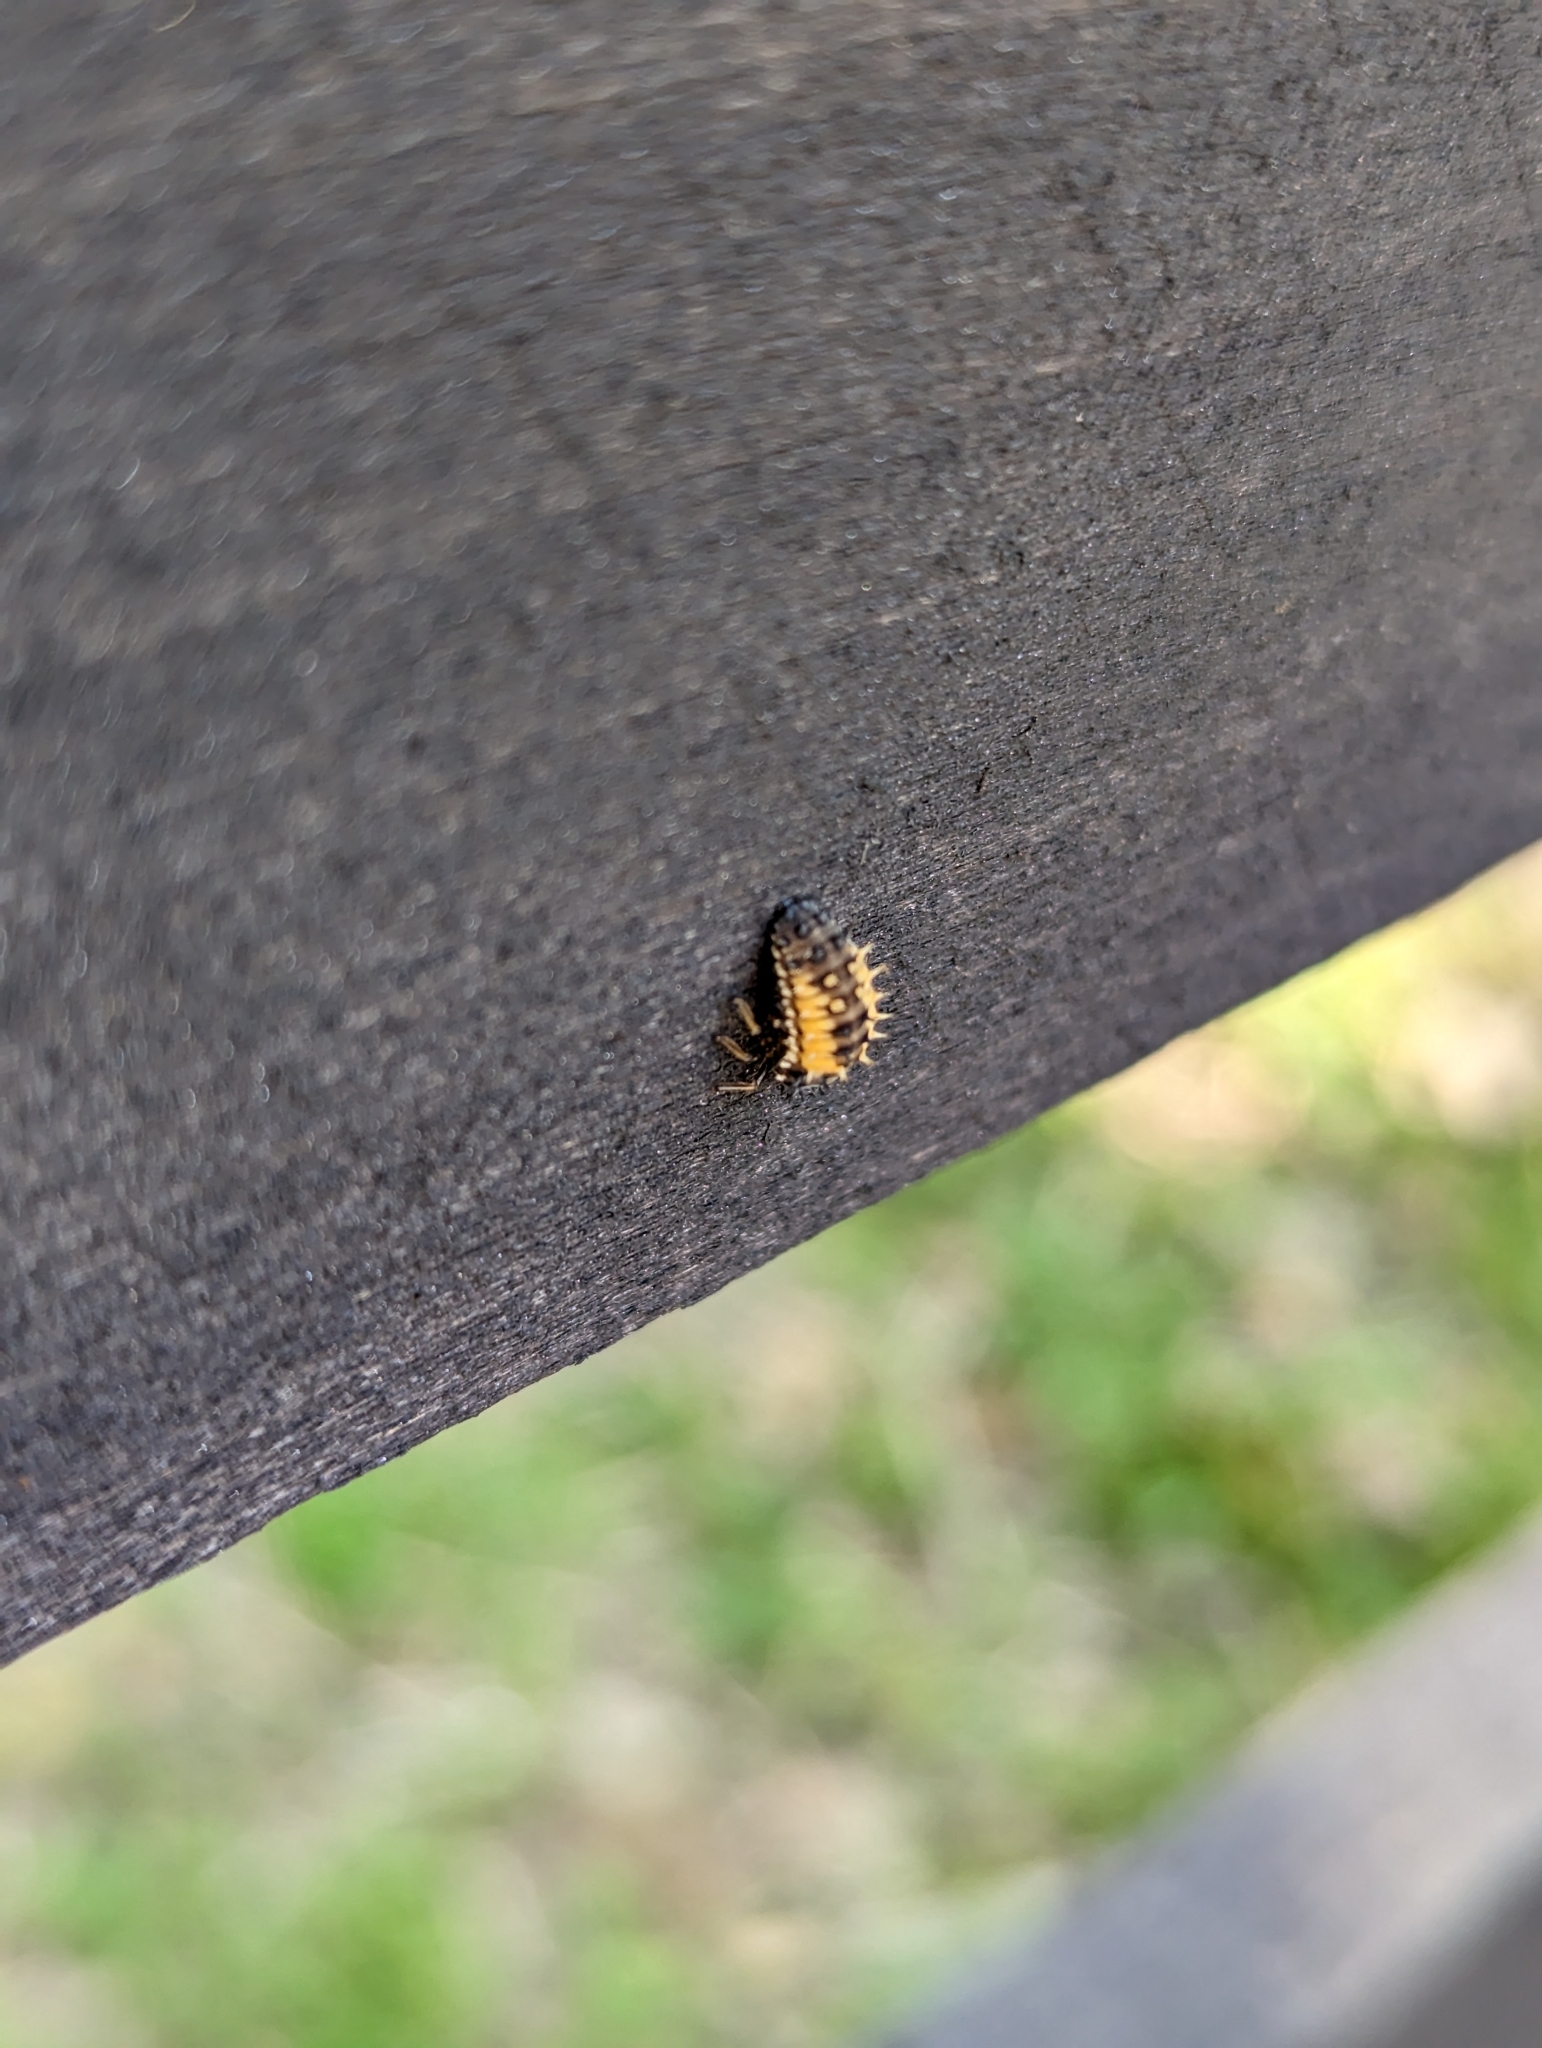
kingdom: Animalia
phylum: Arthropoda
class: Insecta
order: Coleoptera
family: Coccinellidae
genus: Harmonia
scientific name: Harmonia axyridis
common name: Harlequin ladybird
